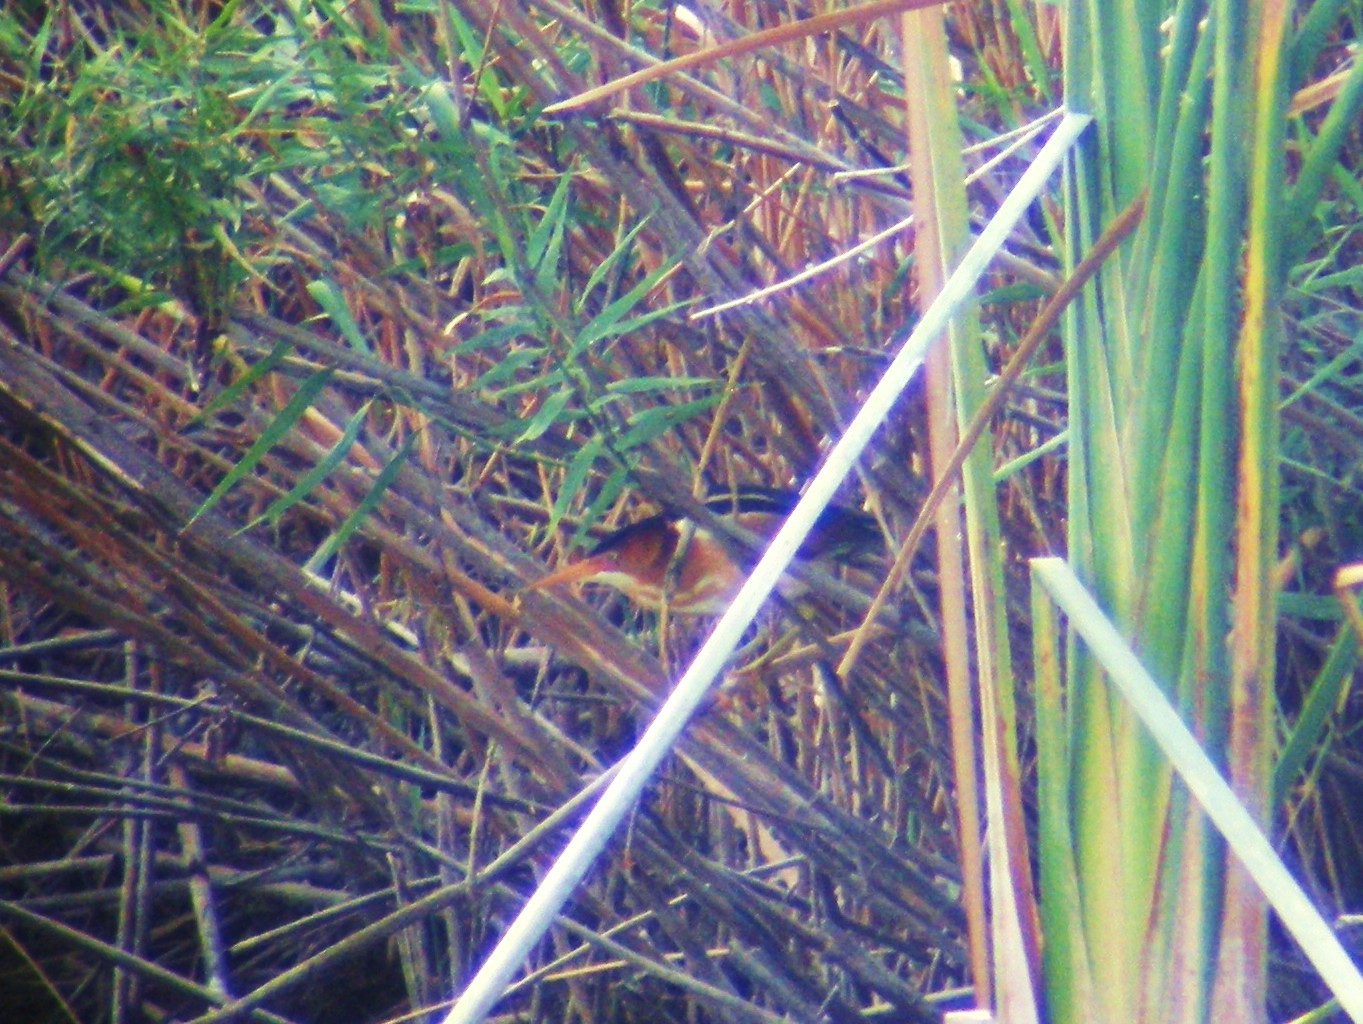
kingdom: Animalia
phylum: Chordata
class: Aves
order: Pelecaniformes
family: Ardeidae
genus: Ixobrychus
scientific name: Ixobrychus exilis
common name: Least bittern
